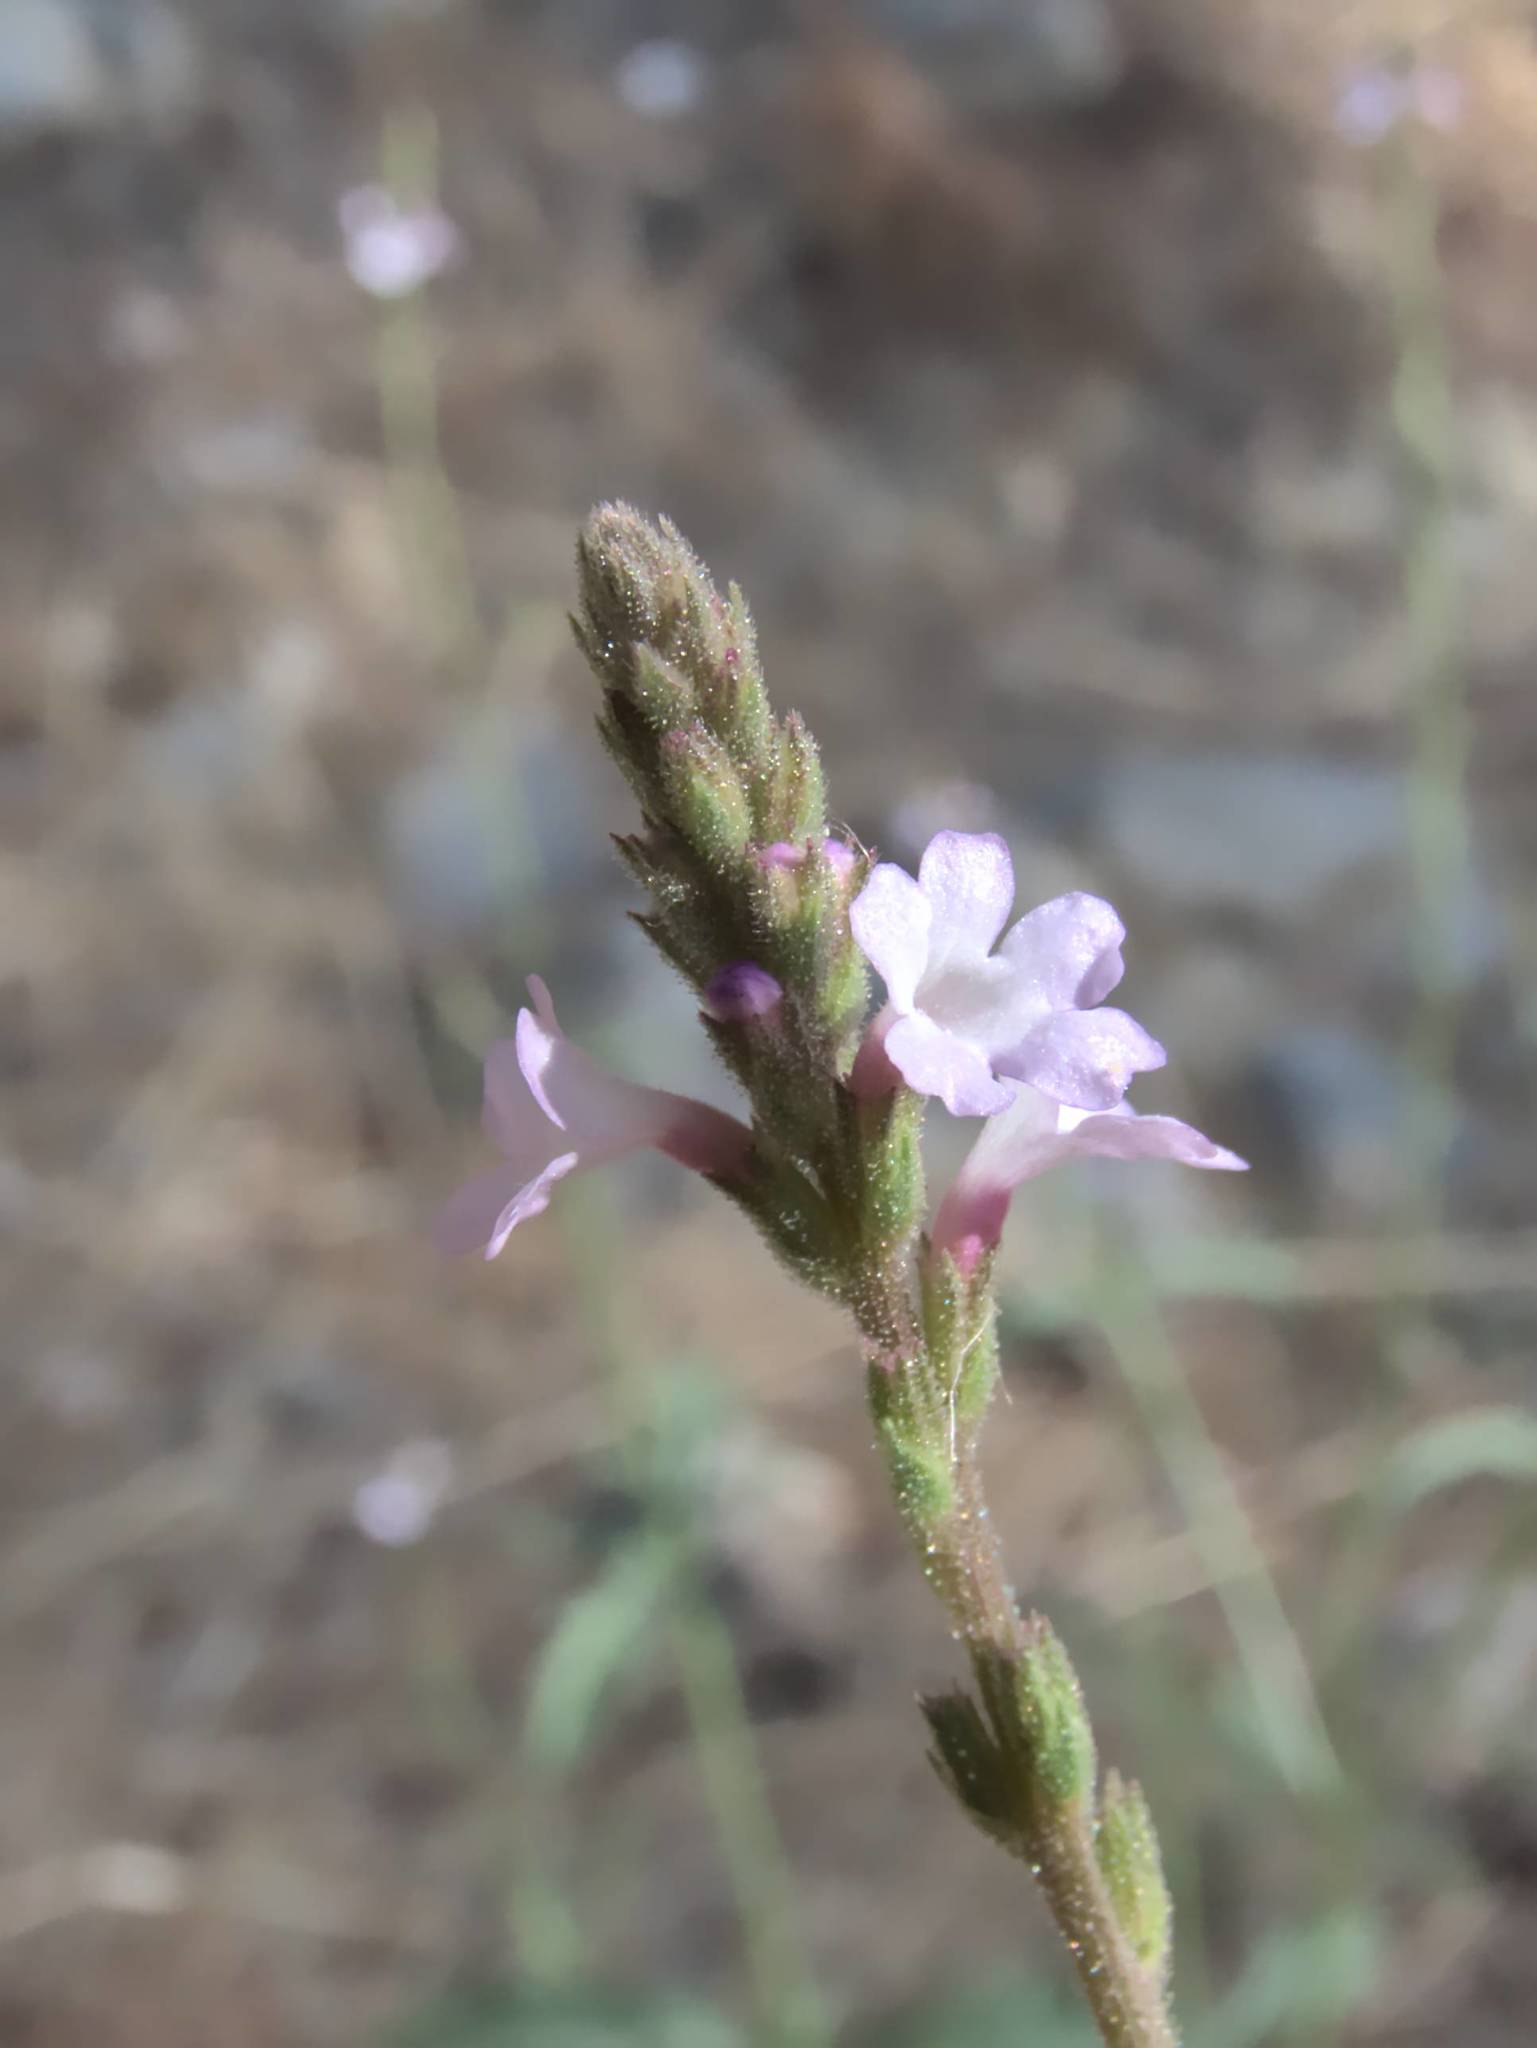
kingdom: Plantae
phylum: Tracheophyta
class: Magnoliopsida
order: Lamiales
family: Verbenaceae
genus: Verbena
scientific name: Verbena officinalis
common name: Vervain
